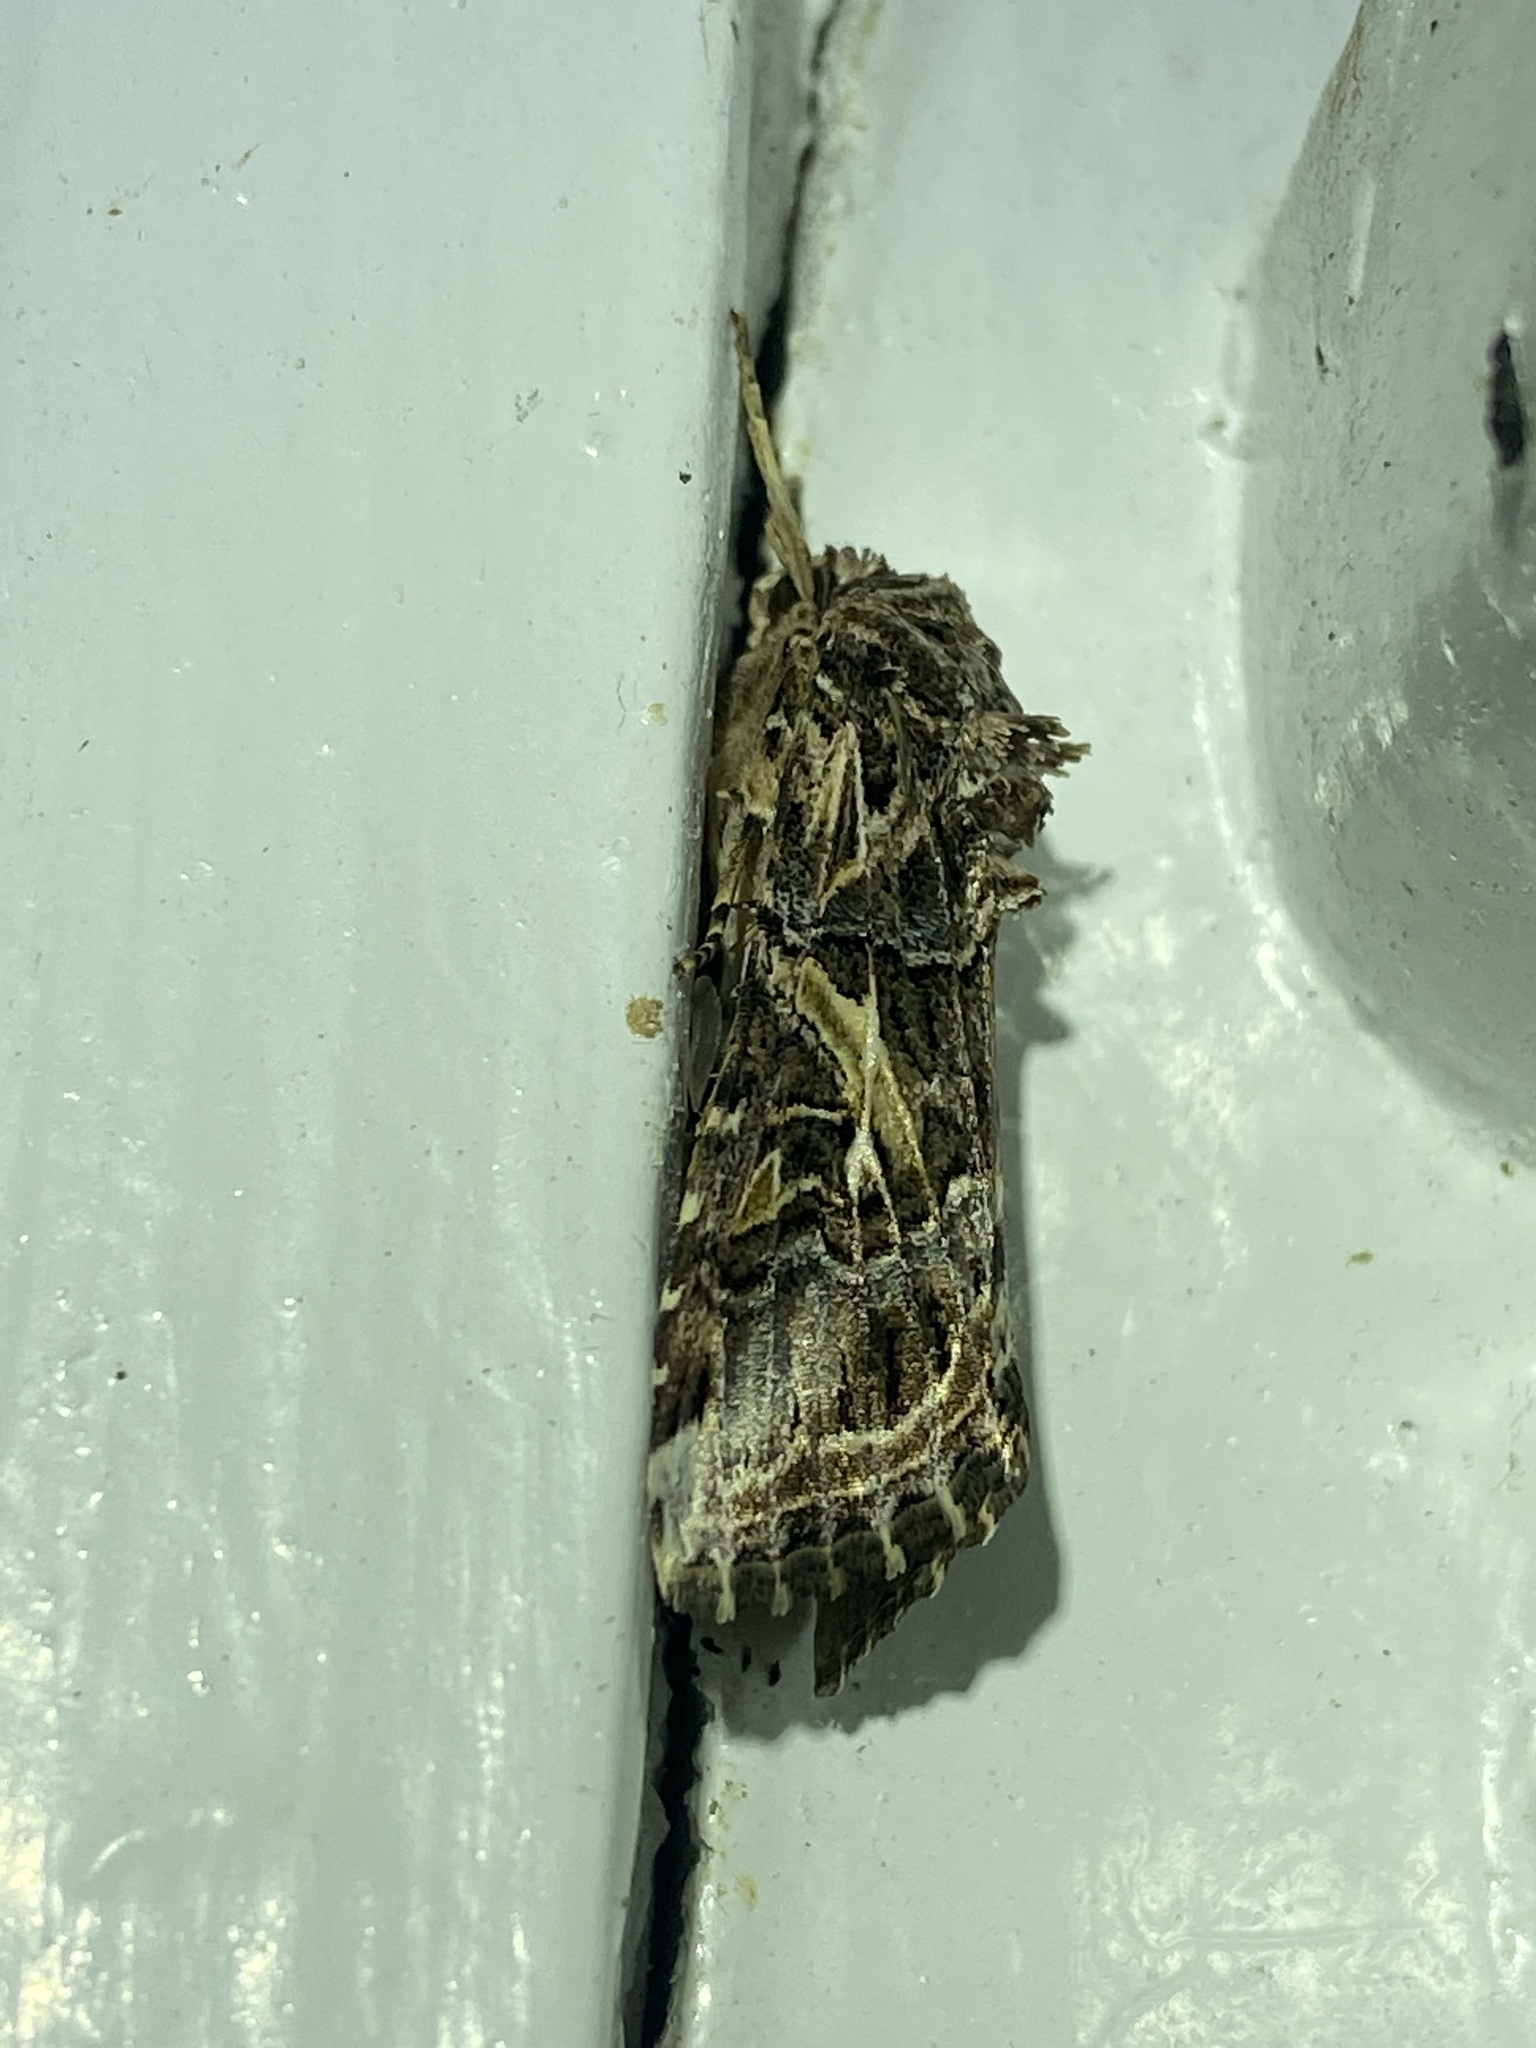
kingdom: Animalia
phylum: Arthropoda
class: Insecta
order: Lepidoptera
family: Noctuidae
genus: Spodoptera
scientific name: Spodoptera ornithogalli
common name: Yellow-striped armyworm
